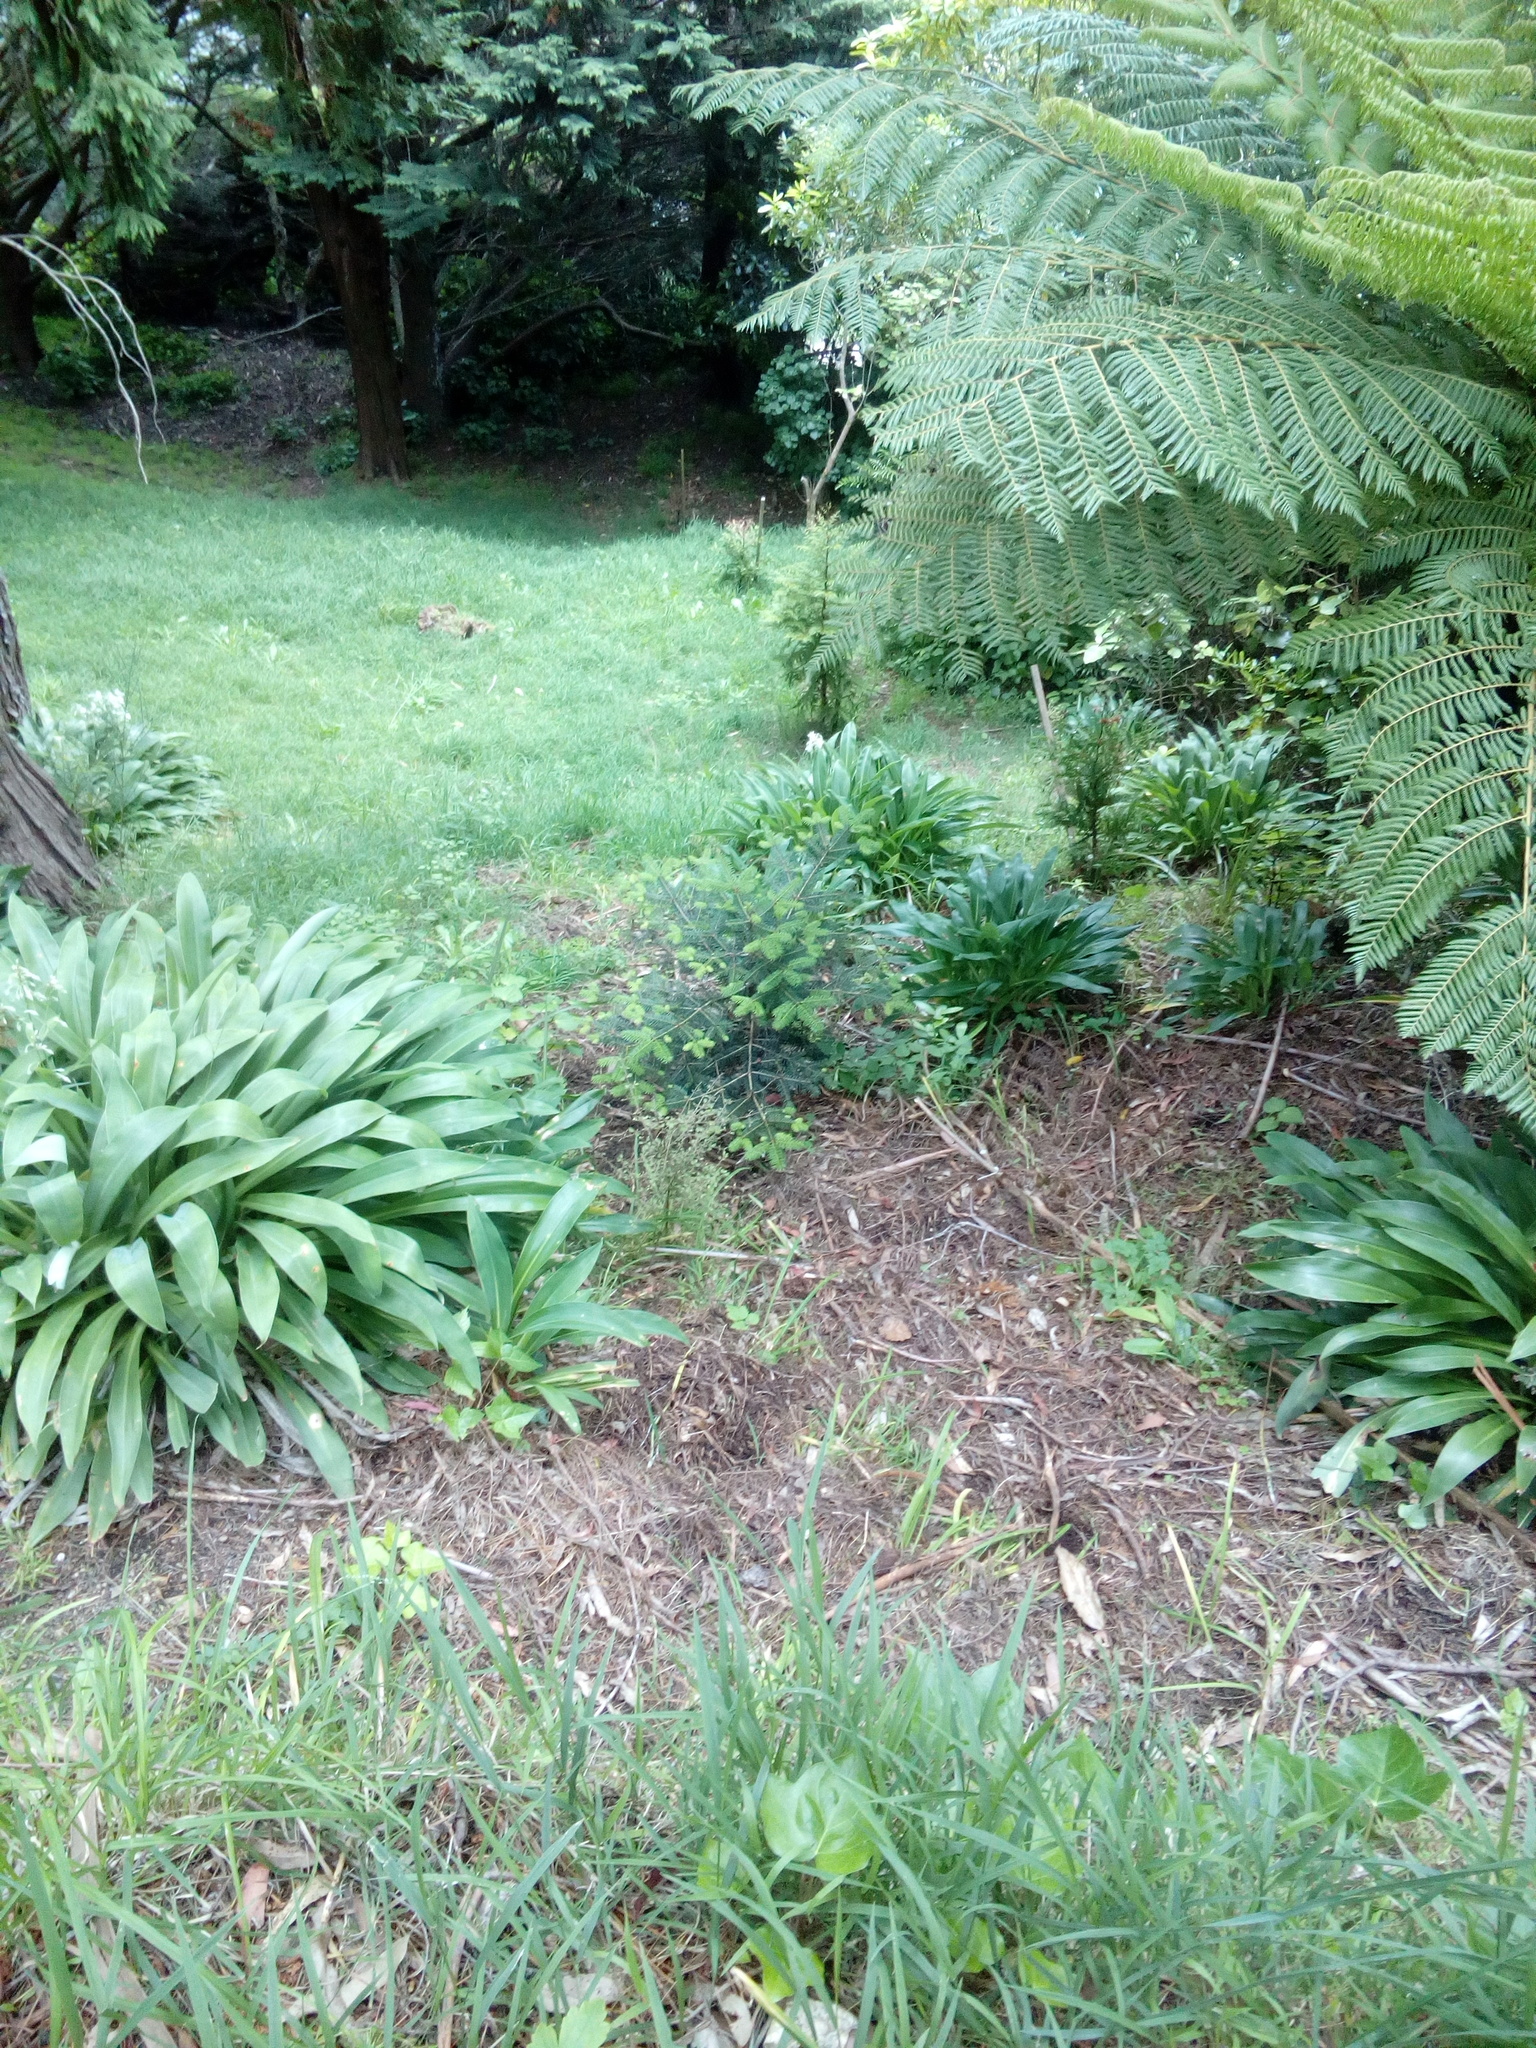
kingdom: Plantae
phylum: Tracheophyta
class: Magnoliopsida
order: Ranunculales
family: Ranunculaceae
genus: Clematis
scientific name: Clematis vitalba
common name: Evergreen clematis
